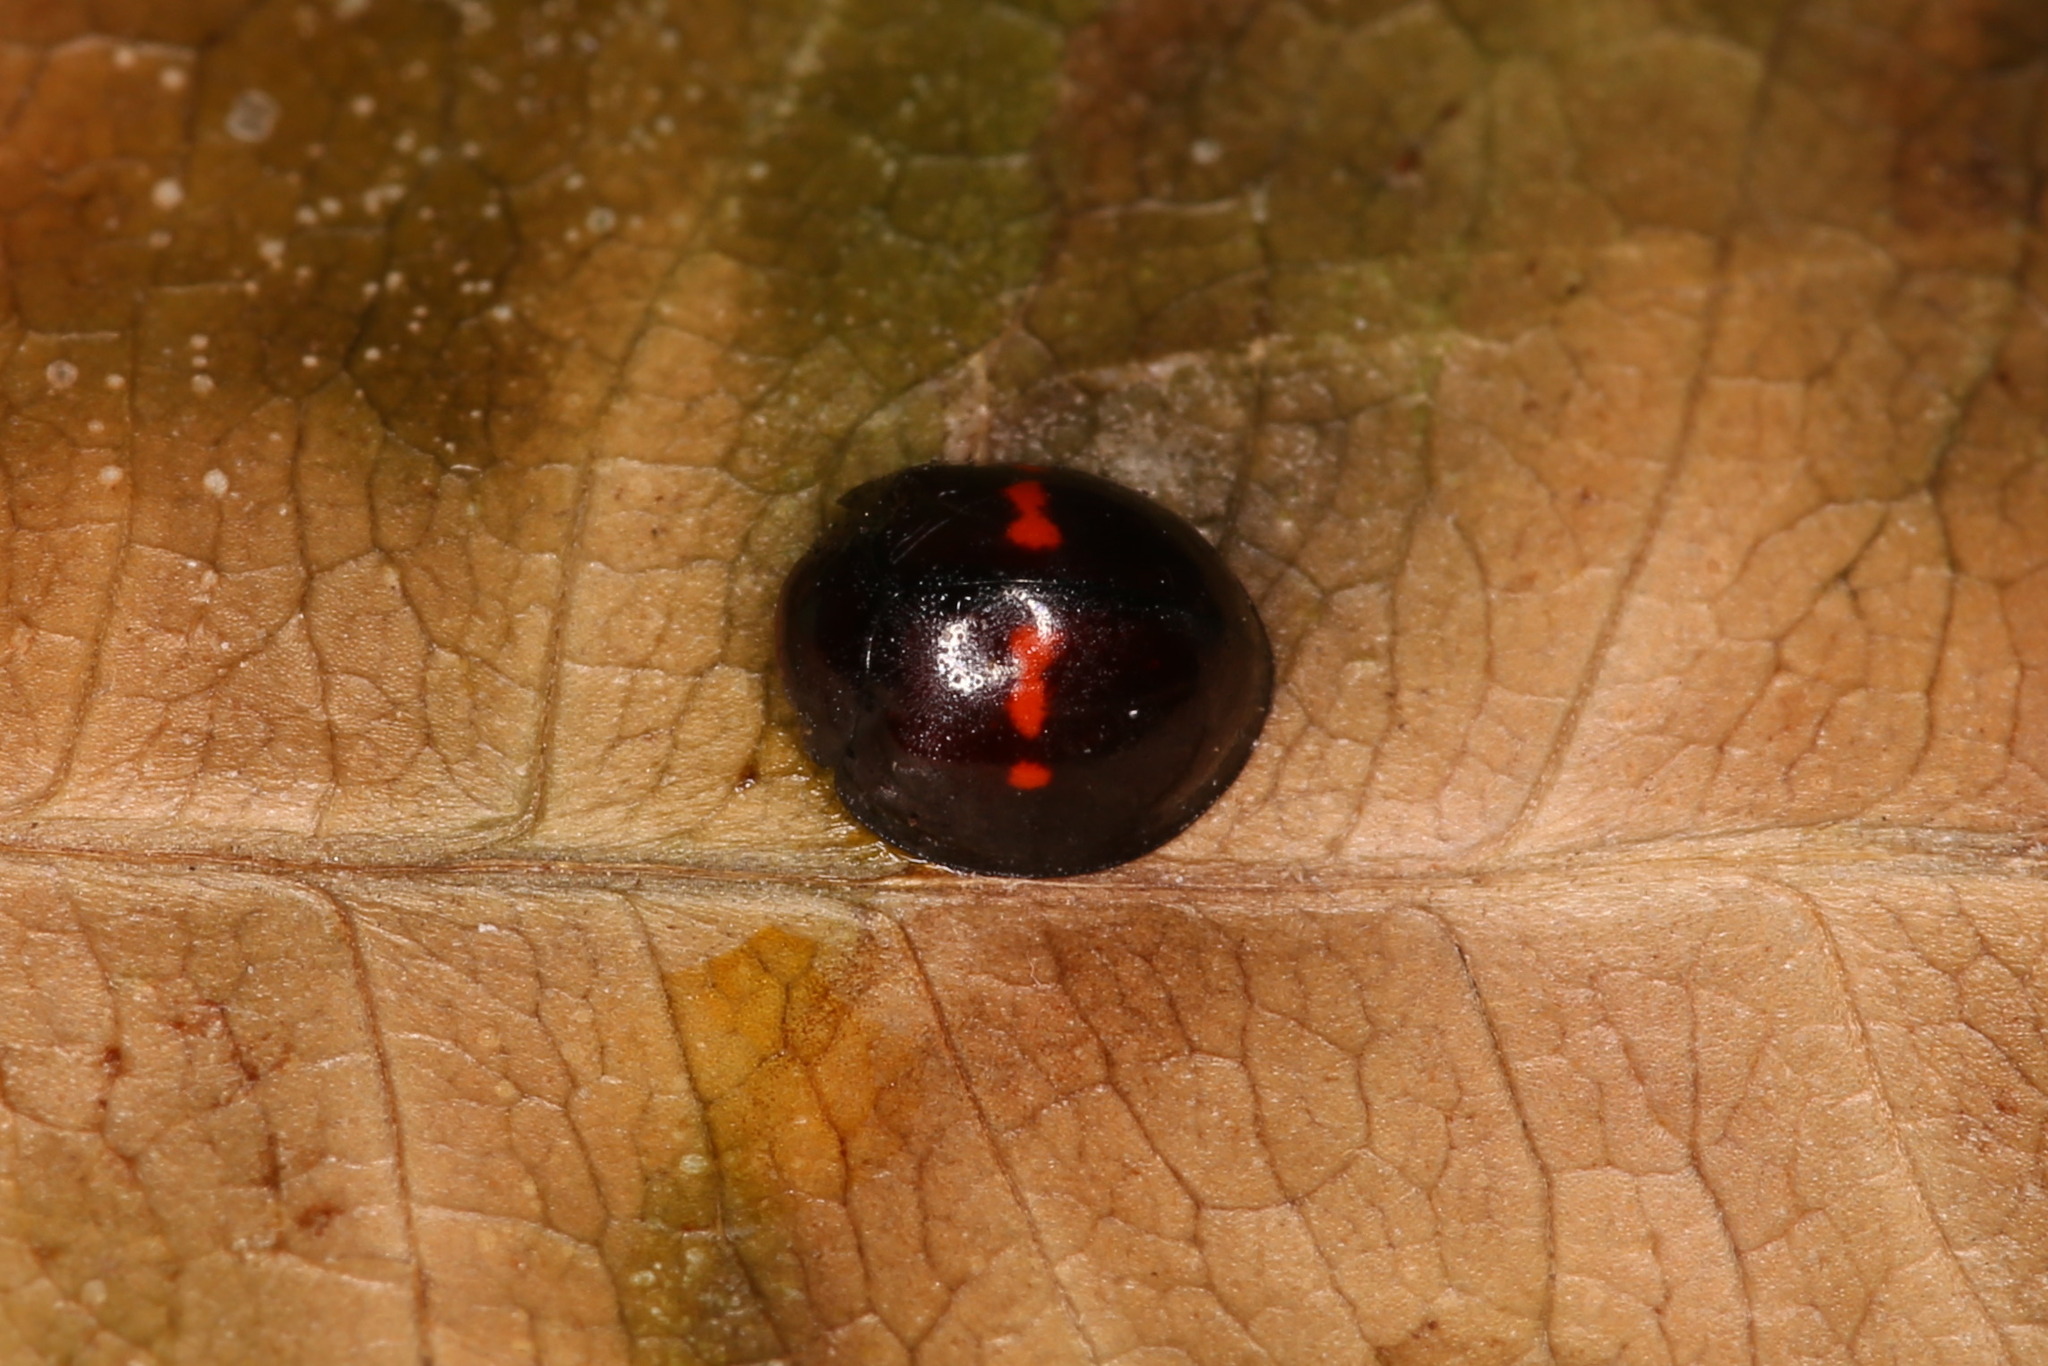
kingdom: Animalia
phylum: Arthropoda
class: Insecta
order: Coleoptera
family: Coccinellidae
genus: Chilocorus
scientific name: Chilocorus bipustulatus
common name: Heather ladybird
